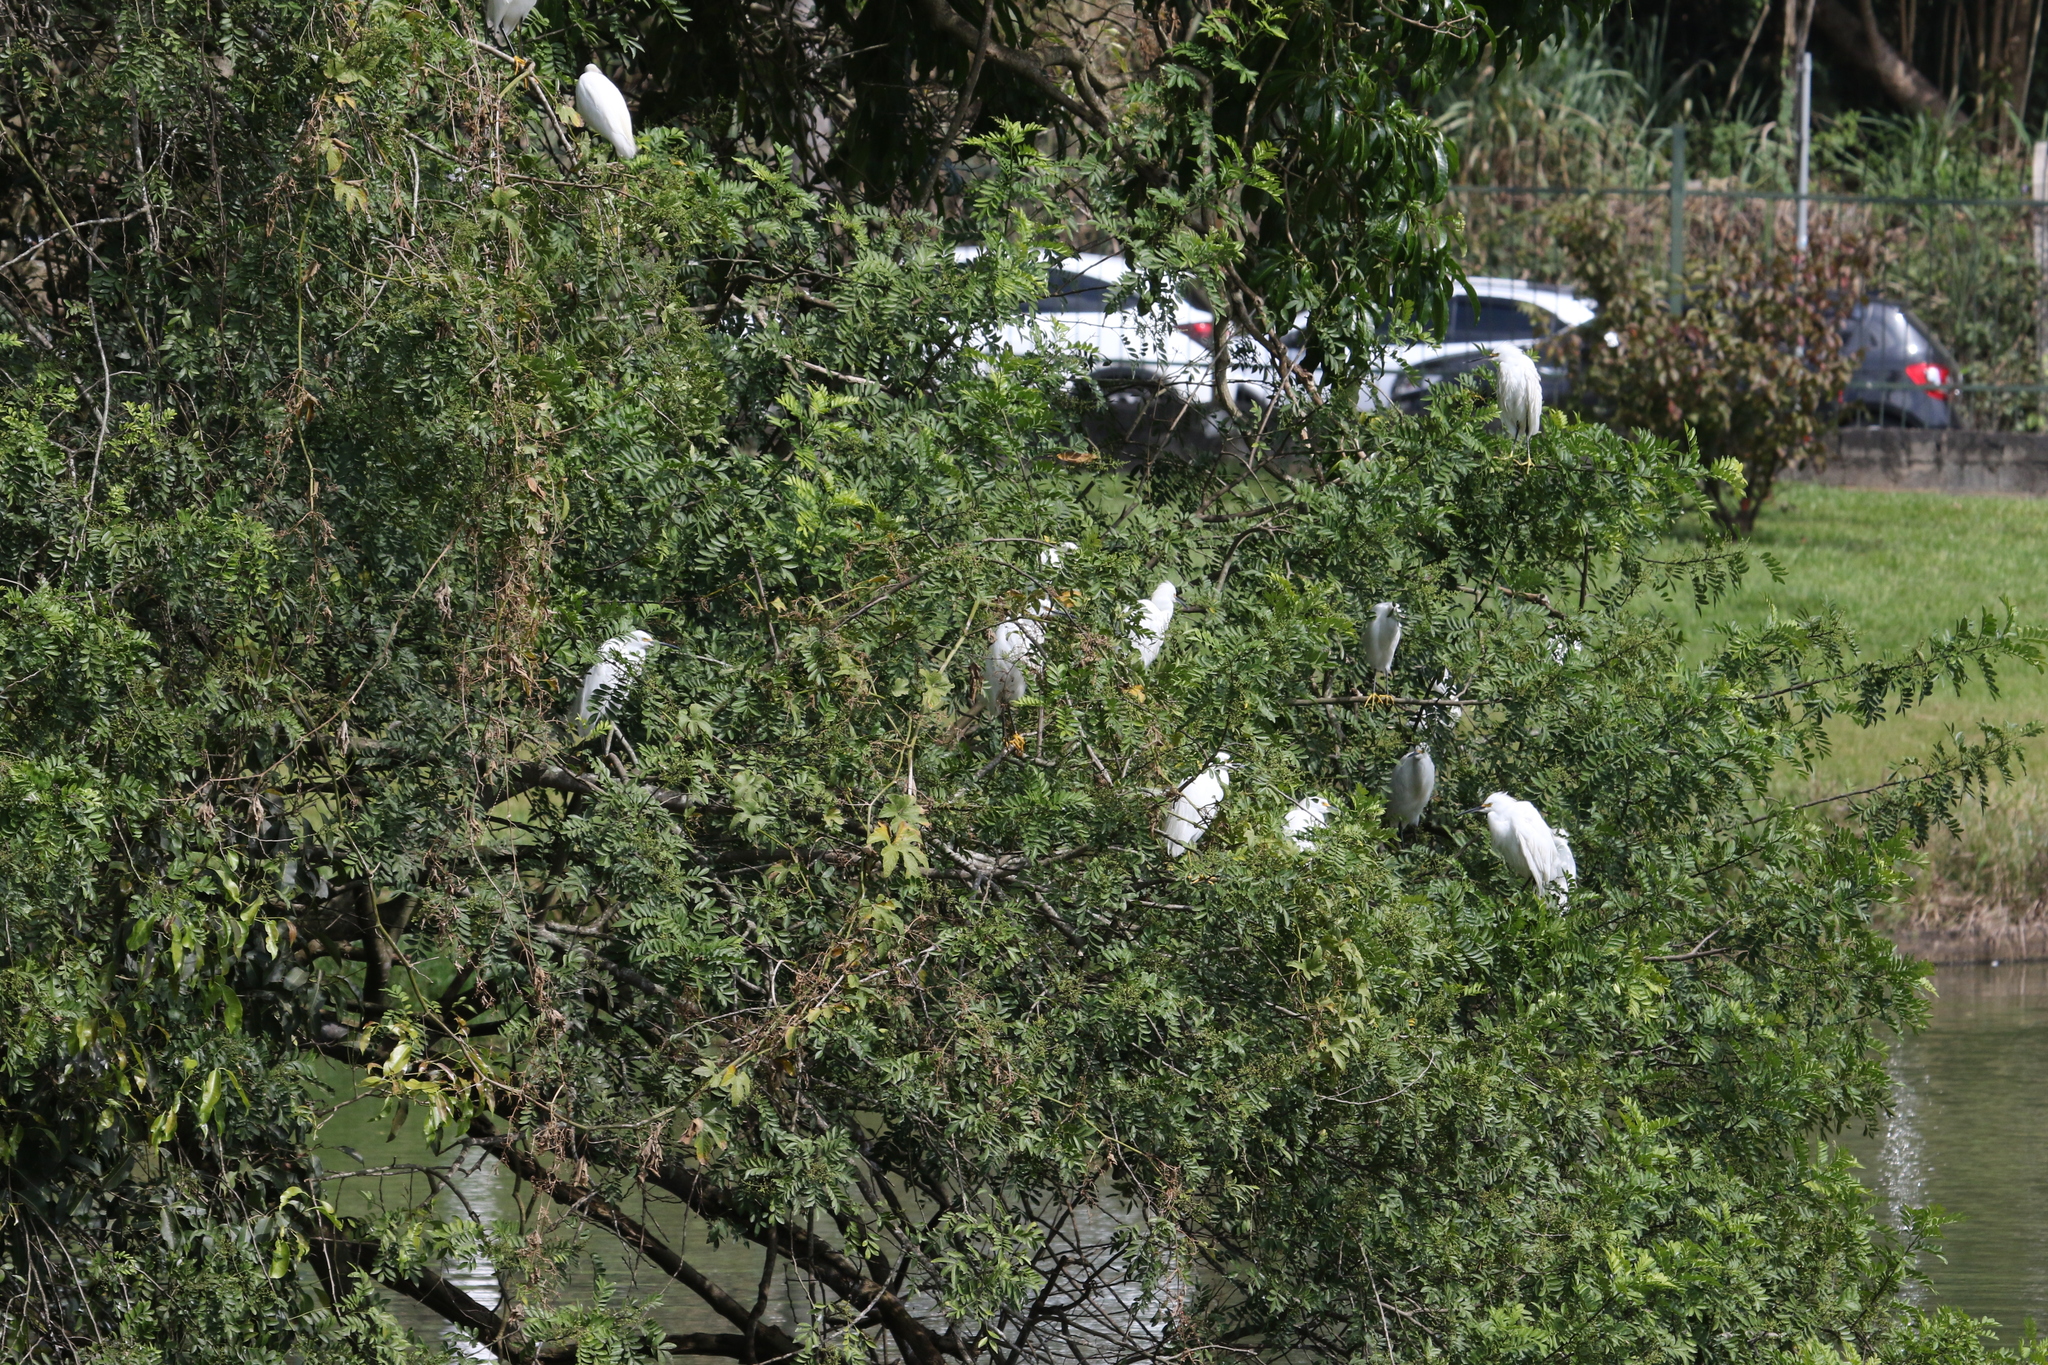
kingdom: Animalia
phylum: Chordata
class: Aves
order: Pelecaniformes
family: Ardeidae
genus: Egretta
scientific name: Egretta thula
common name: Snowy egret
